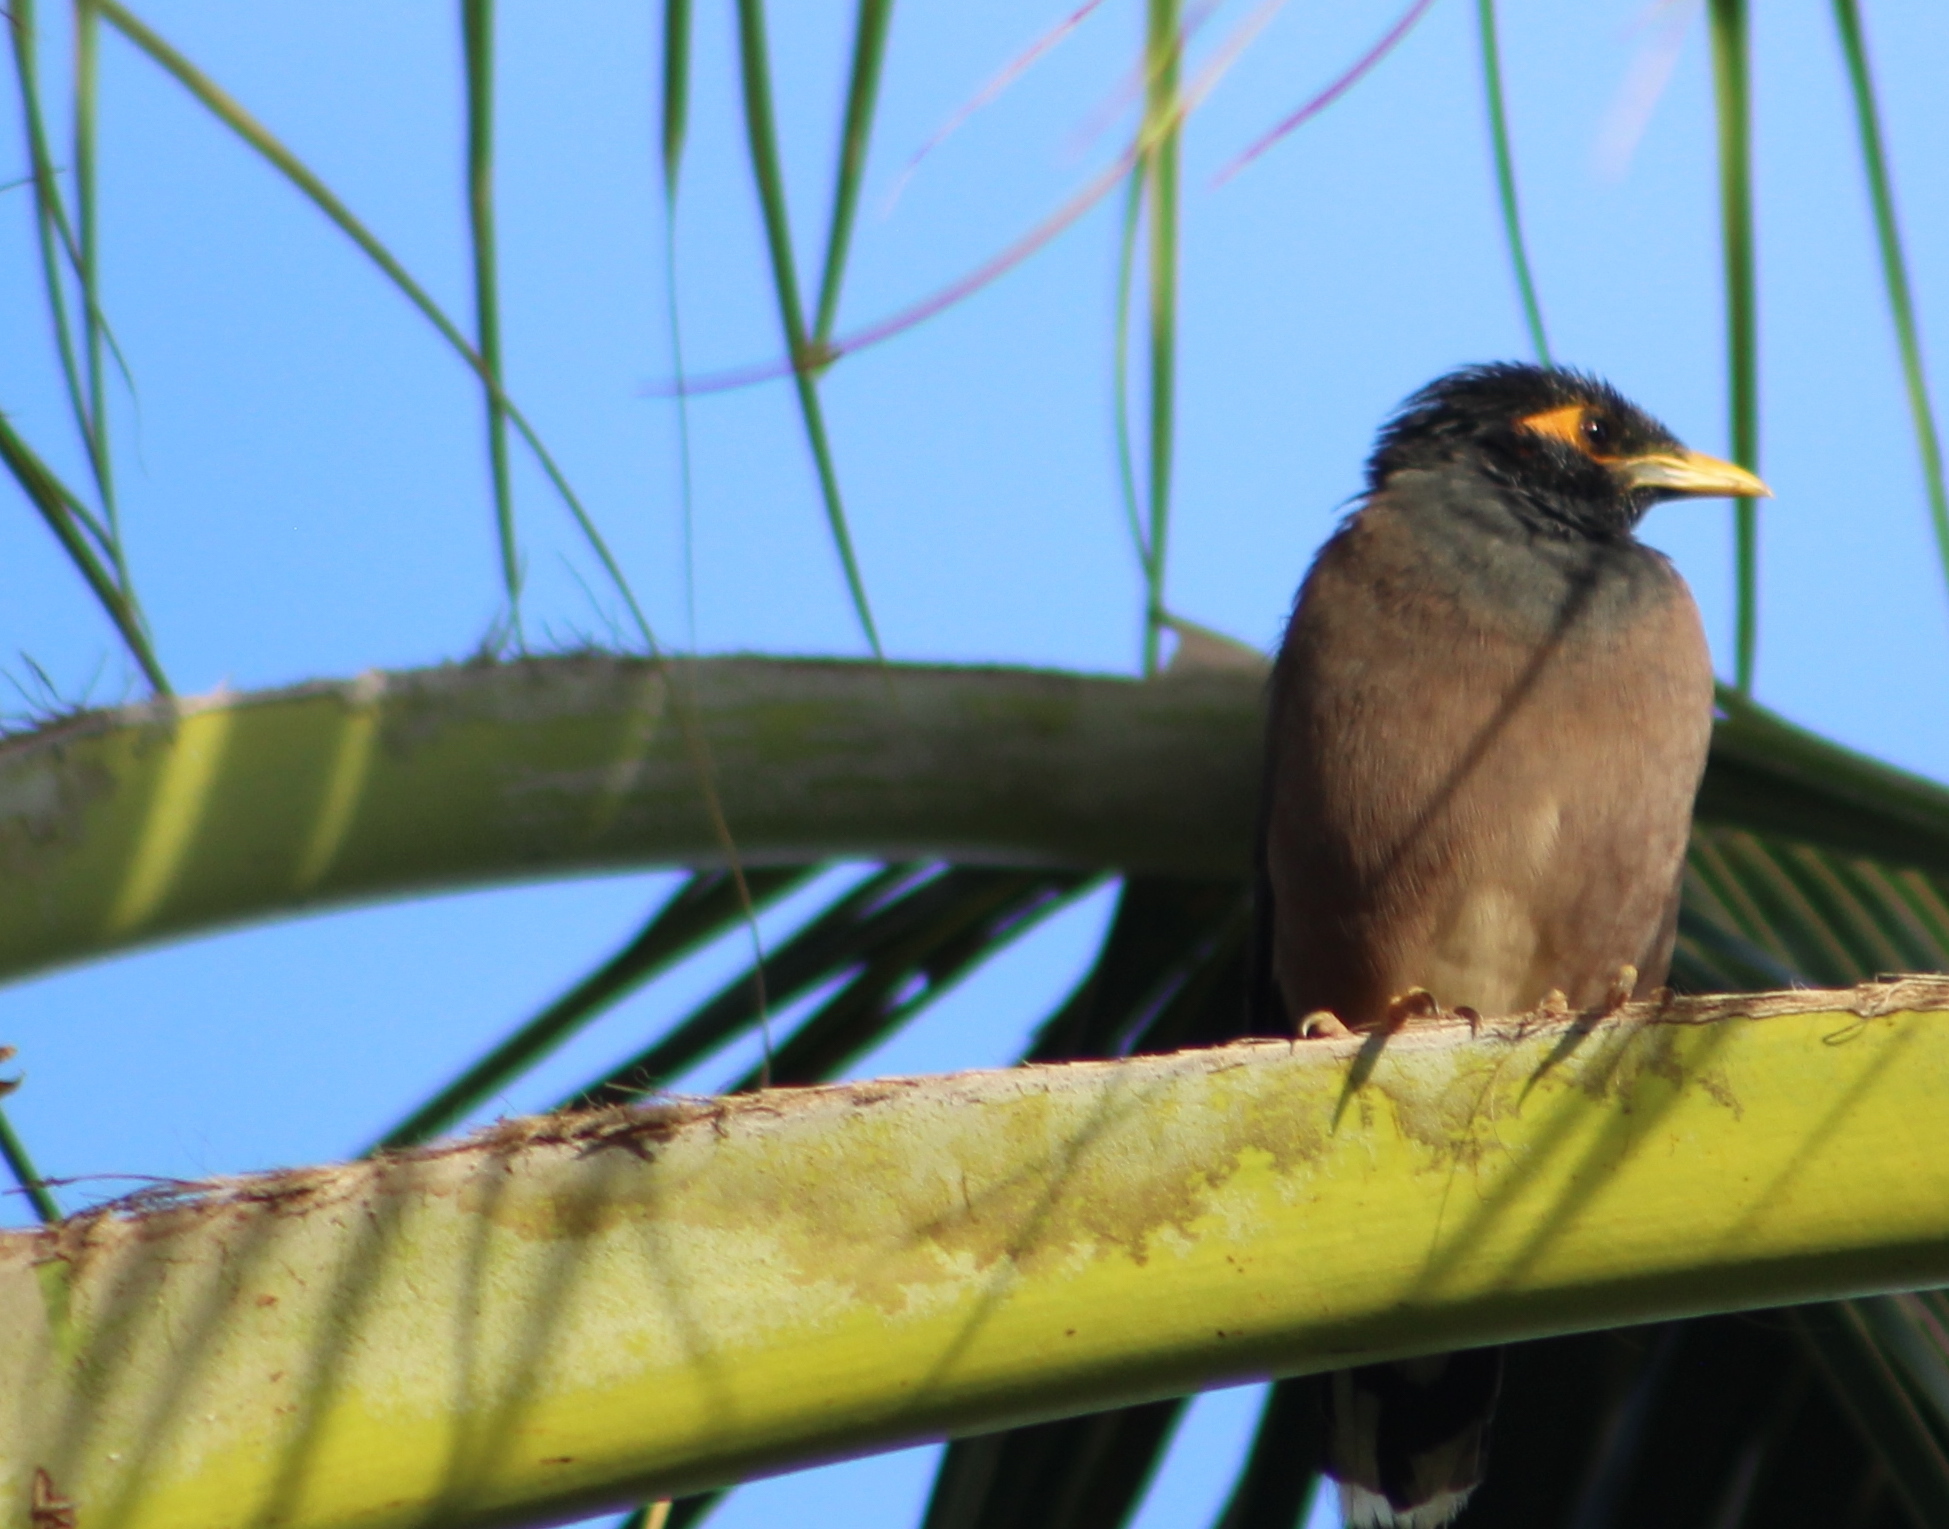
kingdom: Animalia
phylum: Chordata
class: Aves
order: Passeriformes
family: Sturnidae
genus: Acridotheres
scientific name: Acridotheres tristis
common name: Common myna
